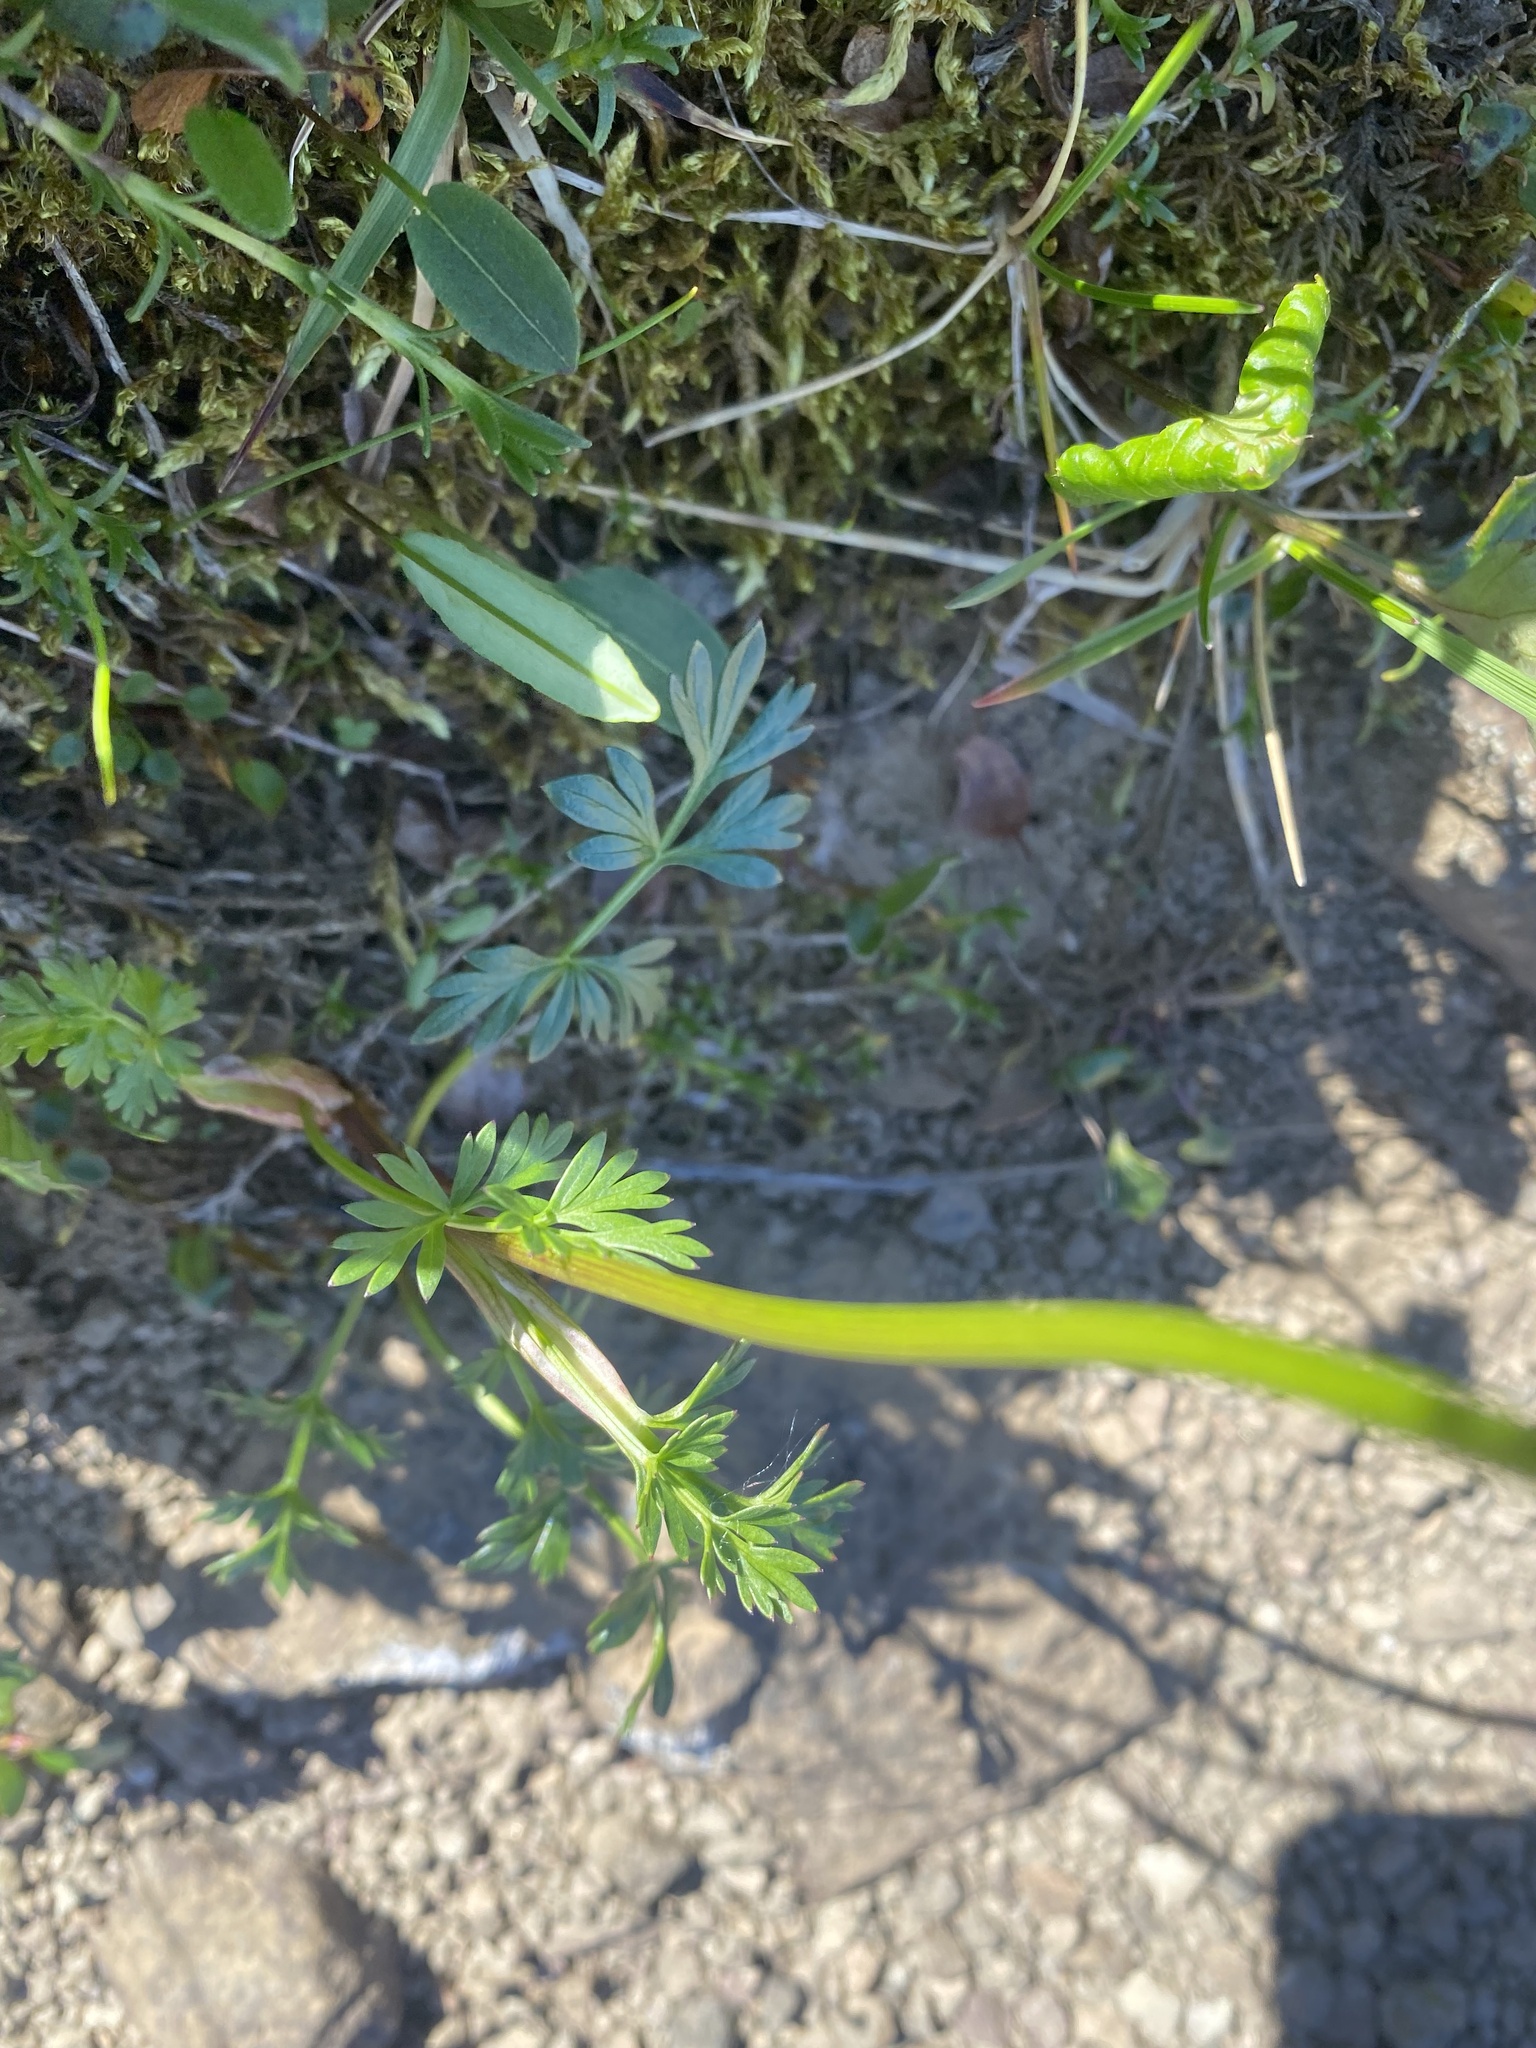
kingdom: Plantae
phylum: Tracheophyta
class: Magnoliopsida
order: Apiales
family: Apiaceae
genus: Pachypleurum
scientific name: Pachypleurum mutellinoides
